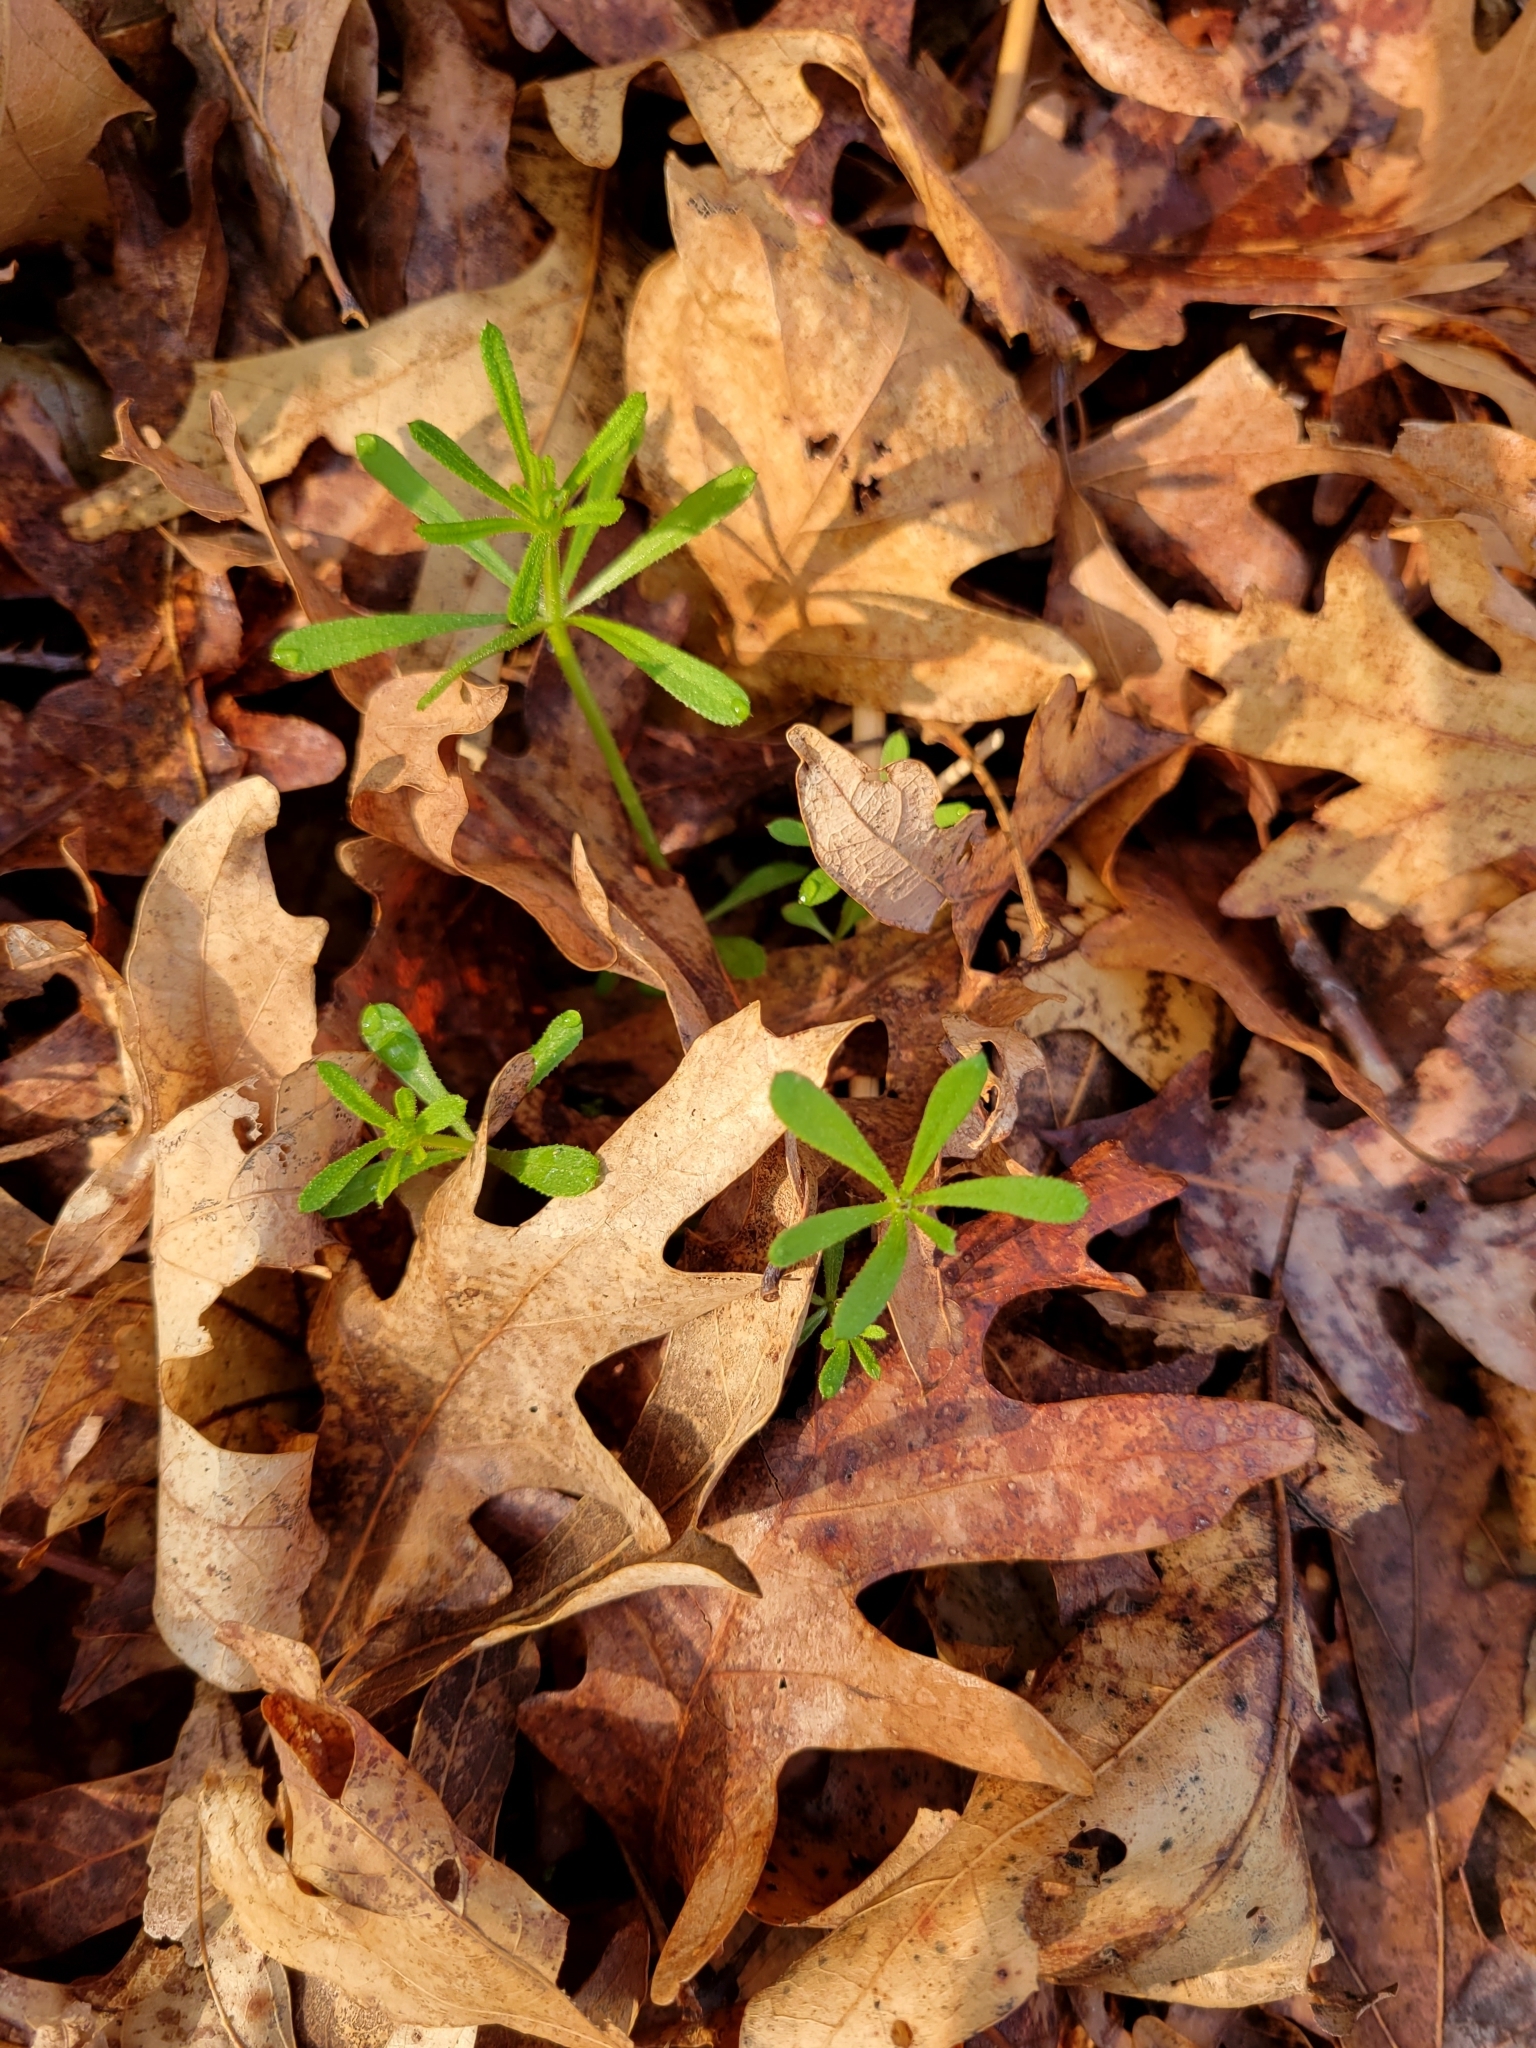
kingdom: Plantae
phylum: Tracheophyta
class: Magnoliopsida
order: Gentianales
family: Rubiaceae
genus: Galium
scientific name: Galium aparine
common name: Cleavers
